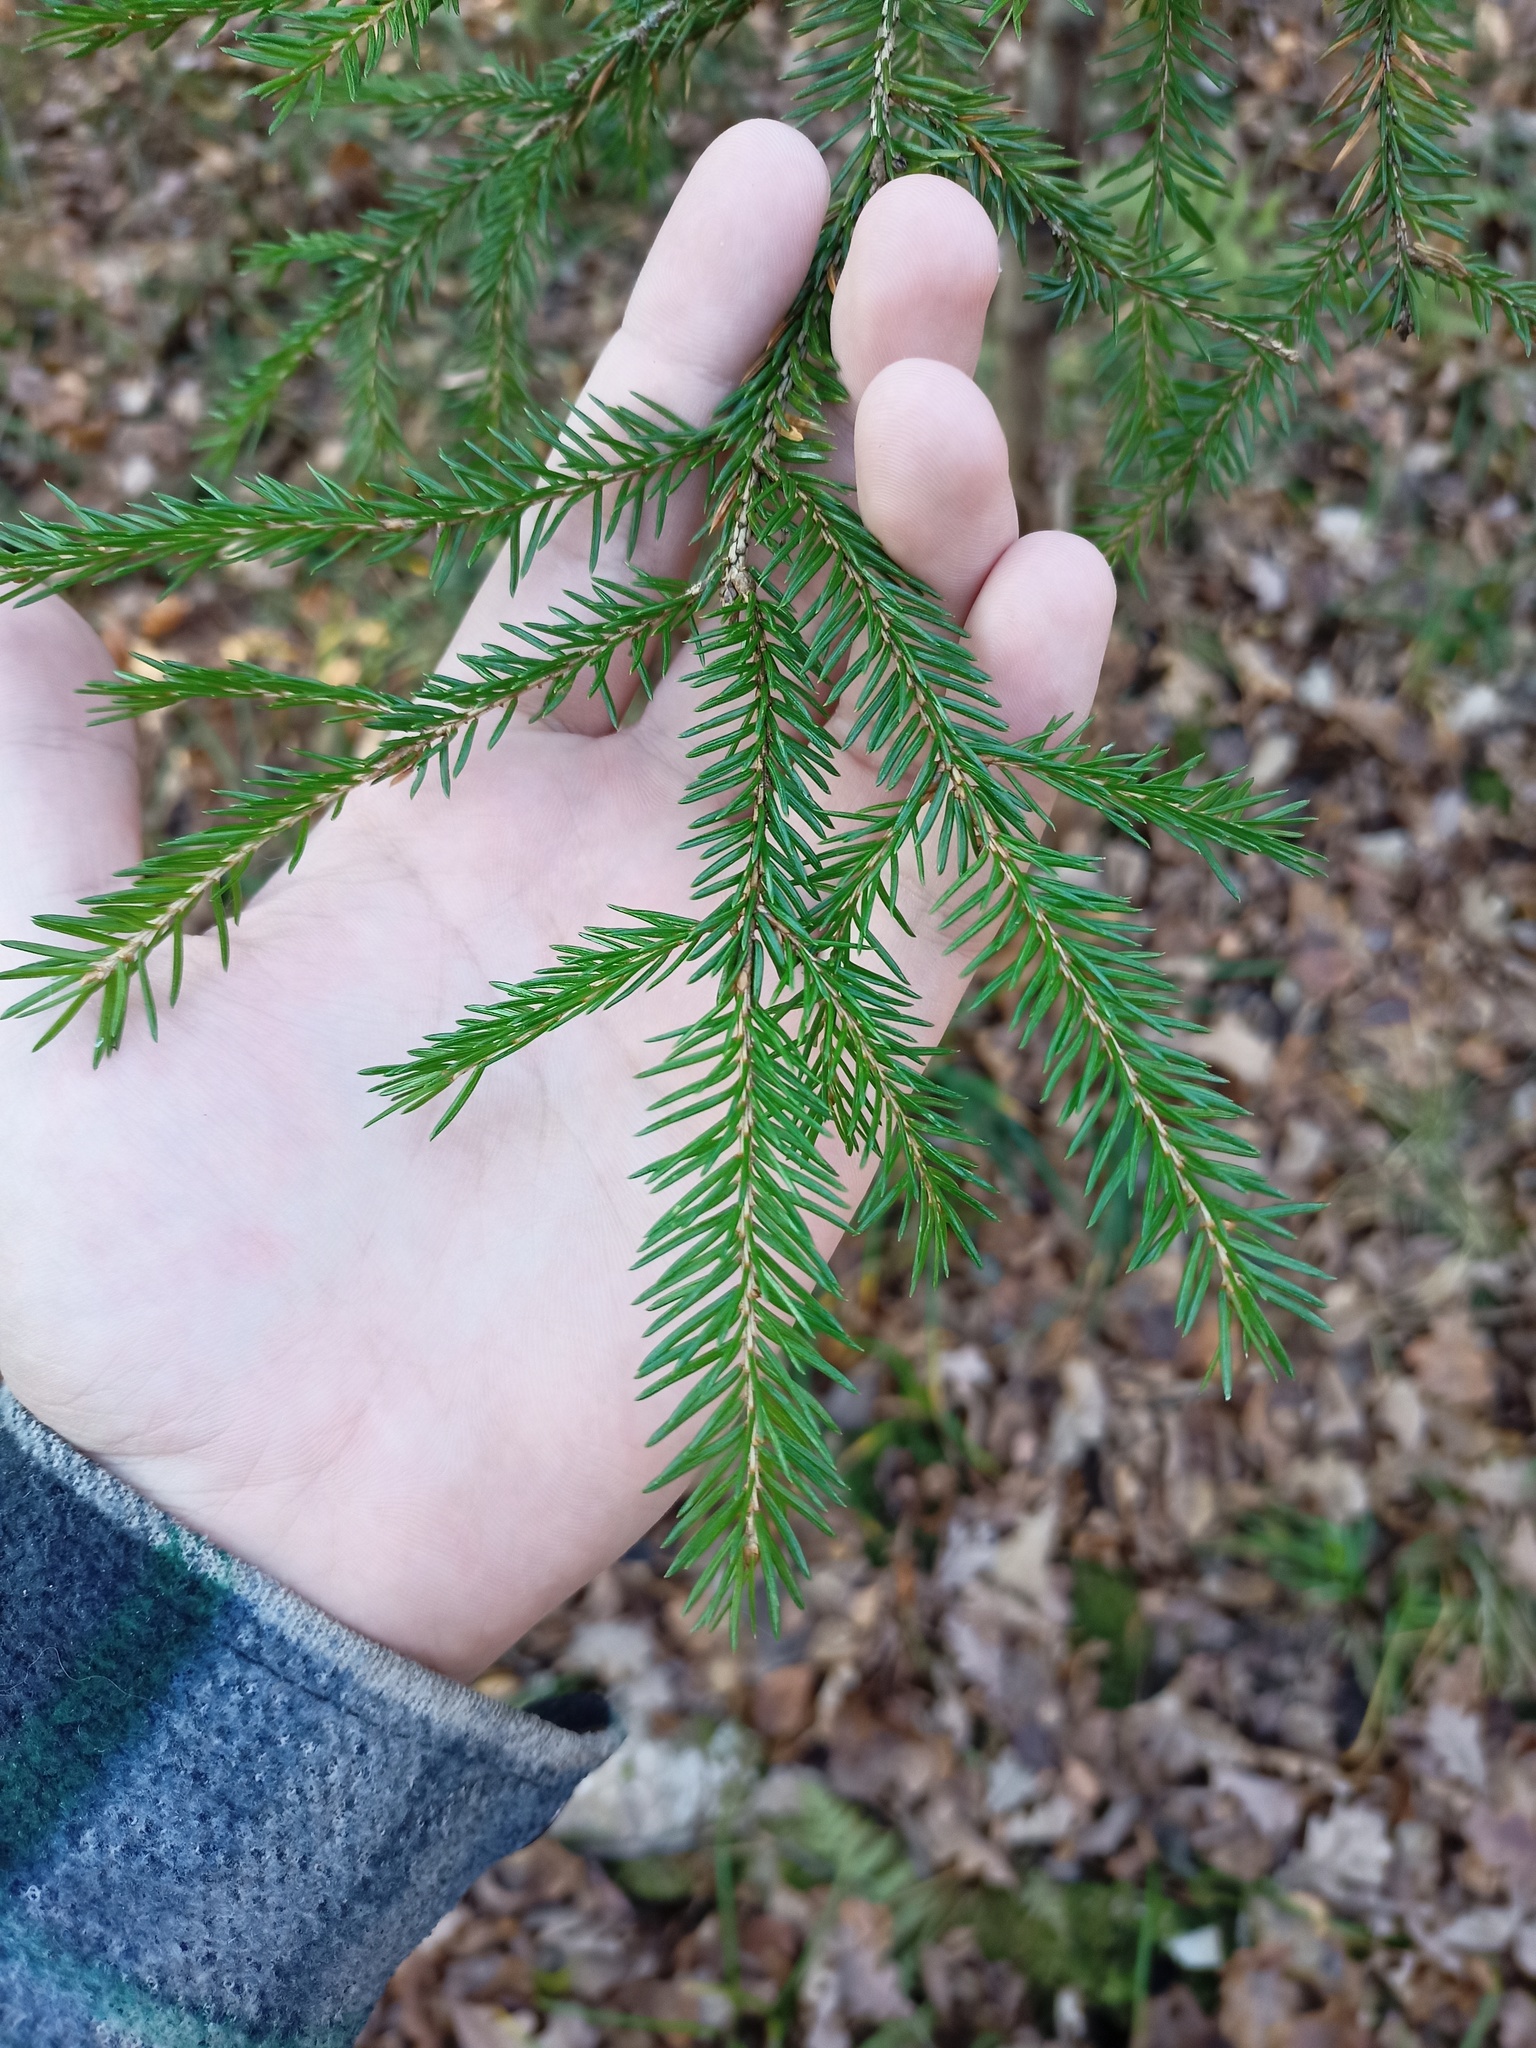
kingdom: Plantae
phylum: Tracheophyta
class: Pinopsida
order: Pinales
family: Pinaceae
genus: Picea
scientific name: Picea abies
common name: Norway spruce
